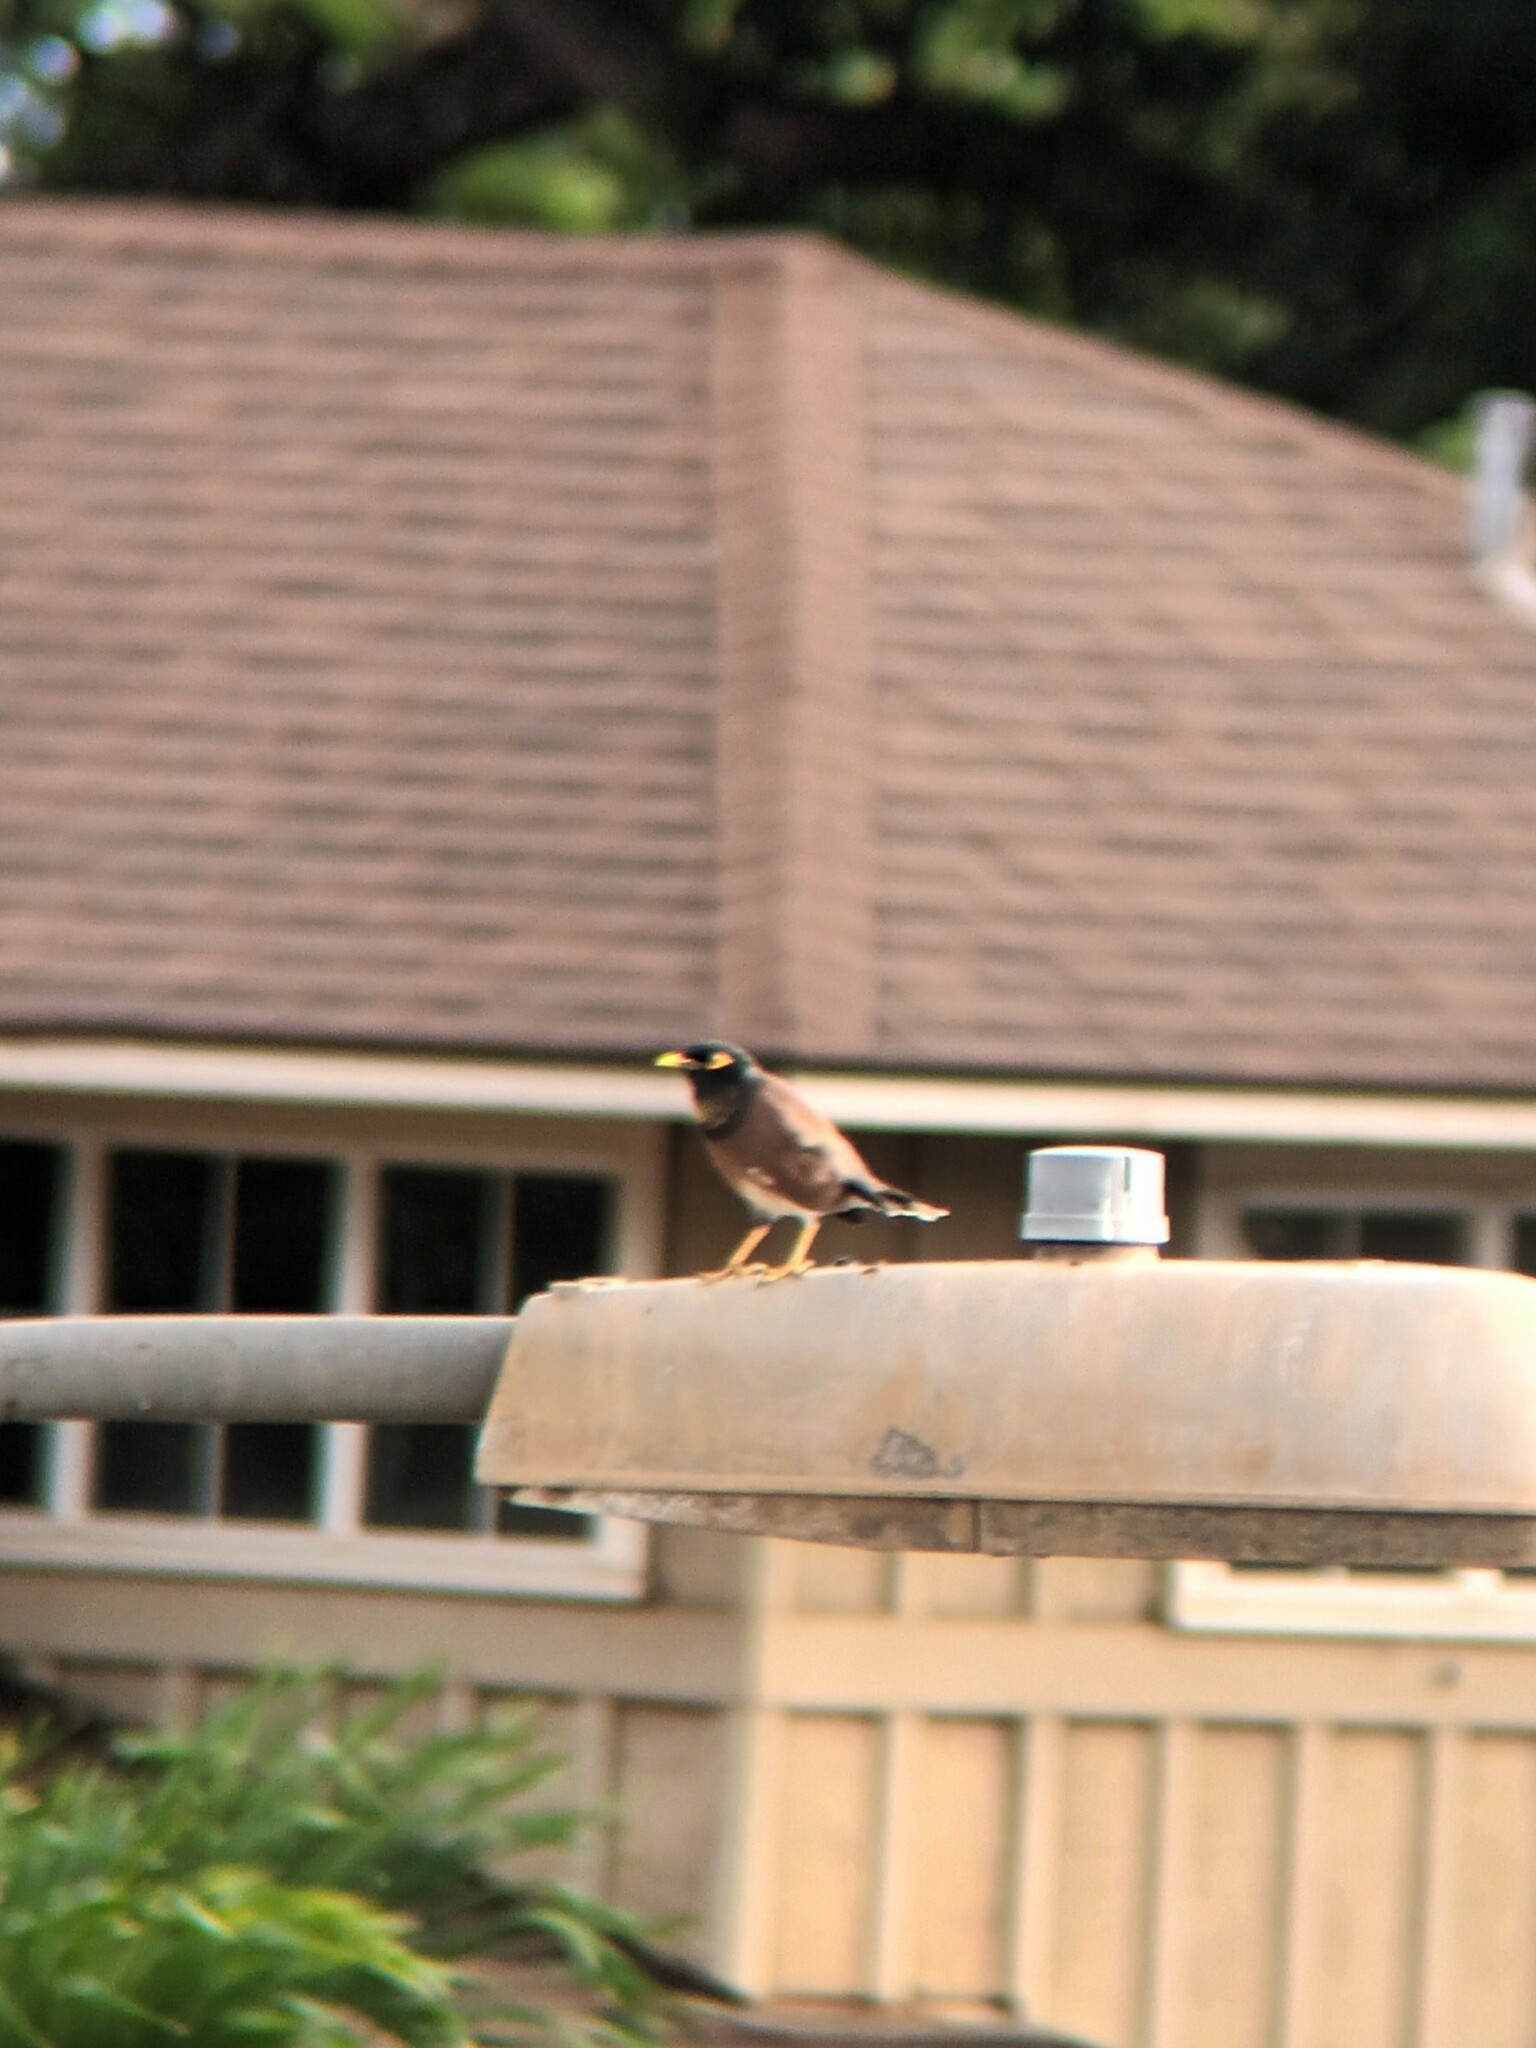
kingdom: Animalia
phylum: Chordata
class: Aves
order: Passeriformes
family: Sturnidae
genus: Acridotheres
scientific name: Acridotheres tristis
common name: Common myna
